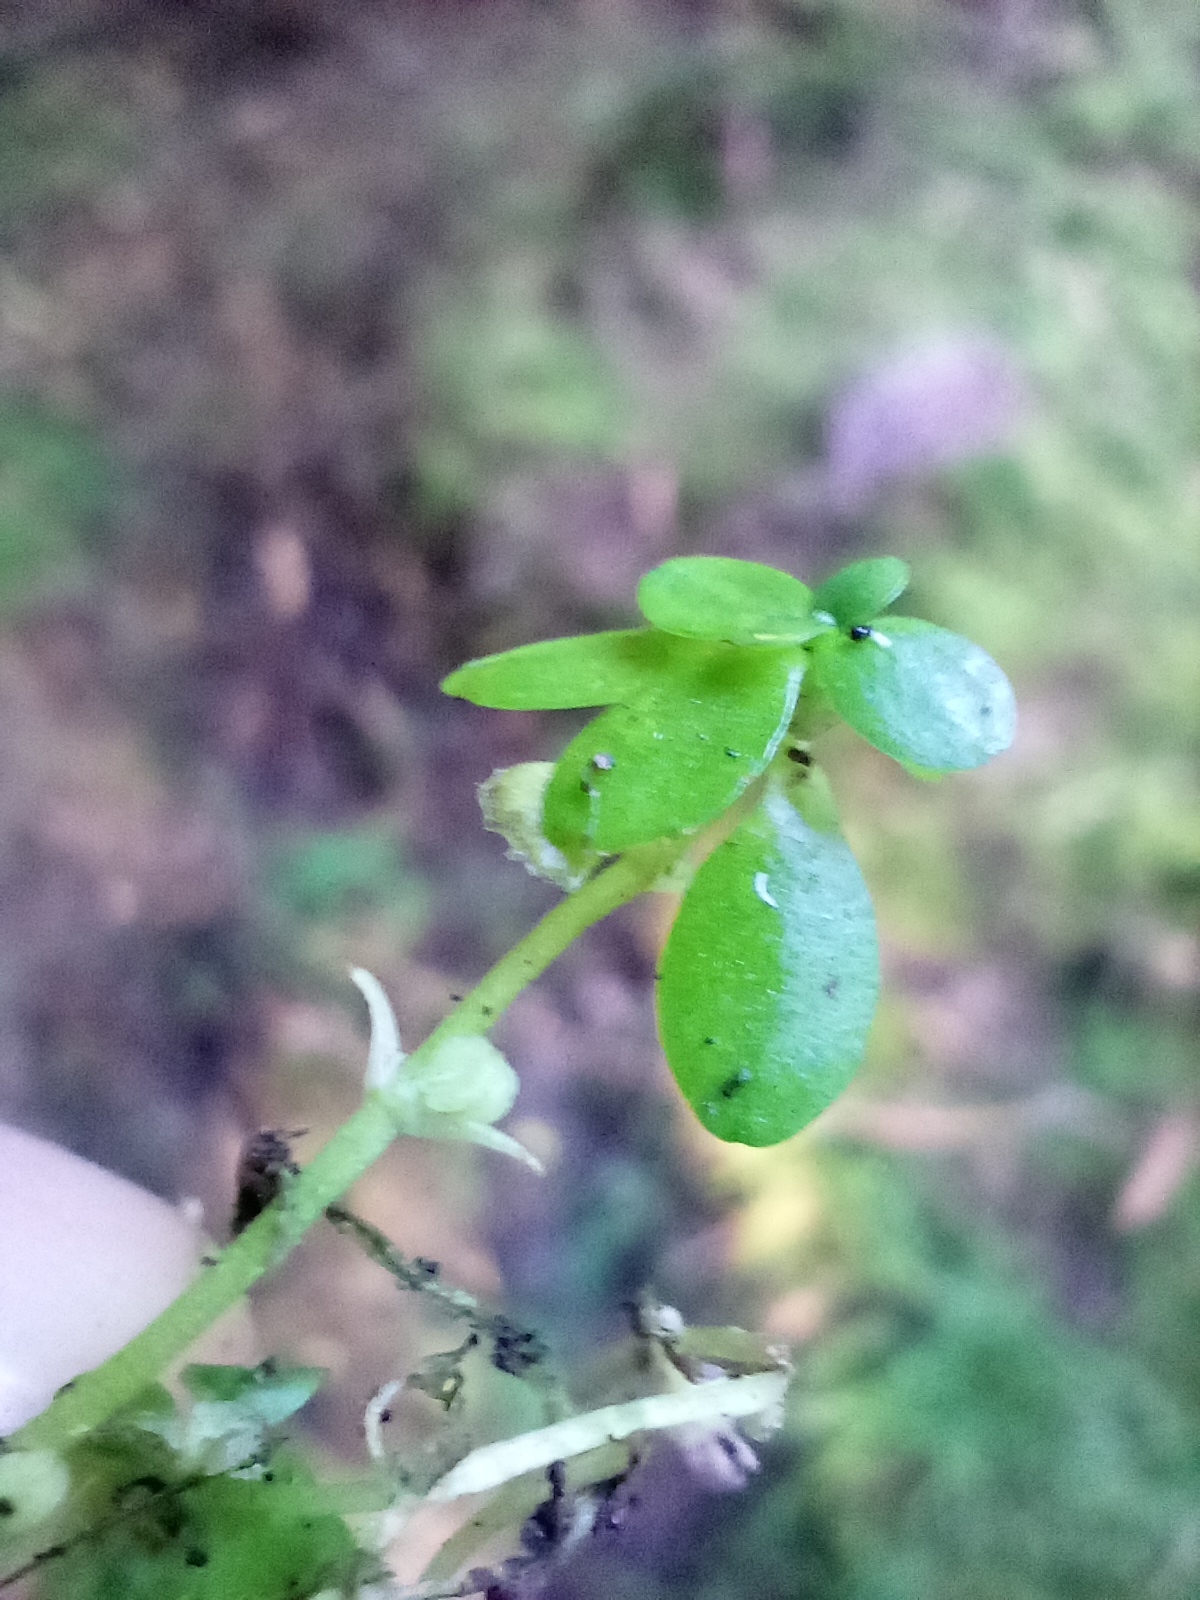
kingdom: Plantae
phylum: Tracheophyta
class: Magnoliopsida
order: Lamiales
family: Plantaginaceae
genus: Callitriche
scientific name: Callitriche stagnalis
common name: Common water-starwort
